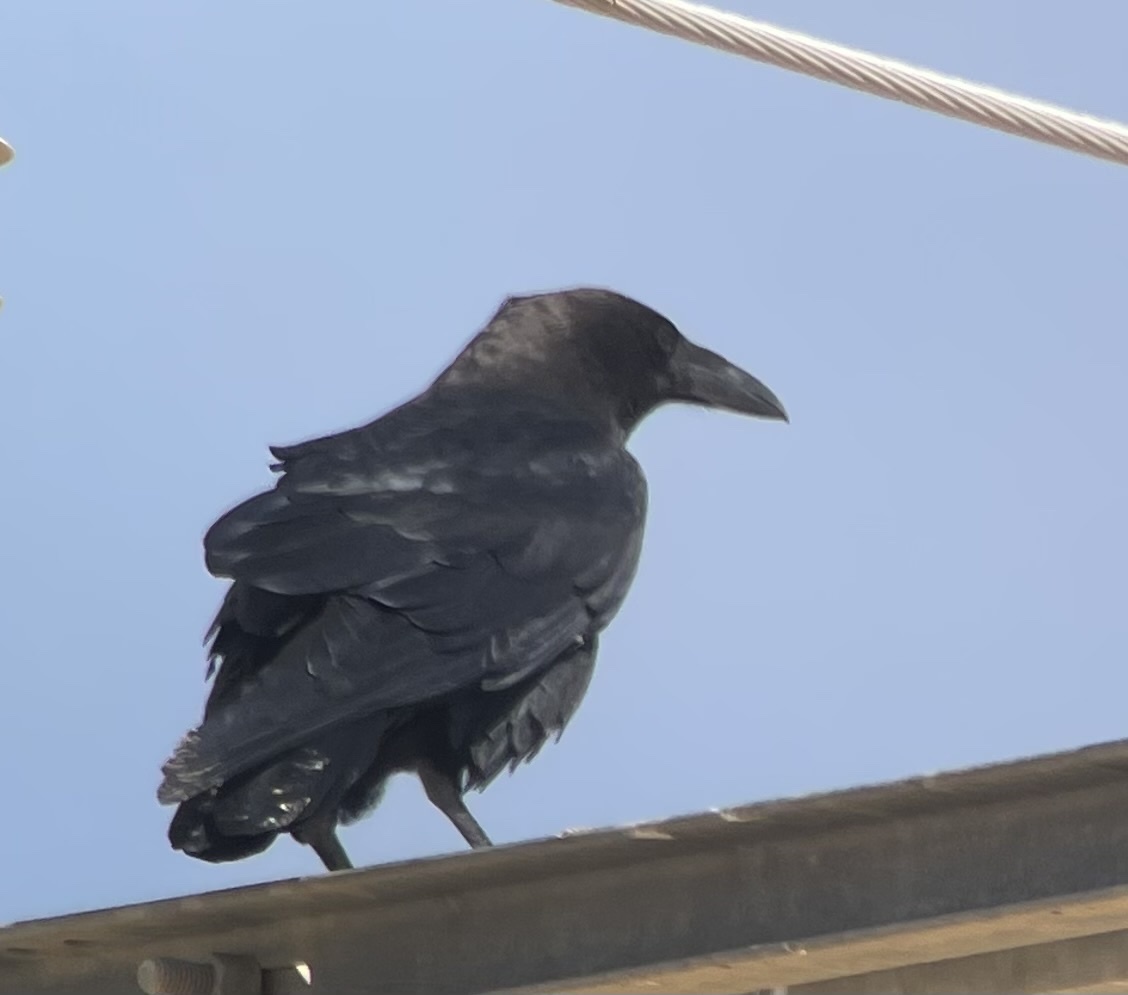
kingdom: Animalia
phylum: Chordata
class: Aves
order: Passeriformes
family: Corvidae
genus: Corvus
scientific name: Corvus ruficollis
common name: Brown-necked raven
